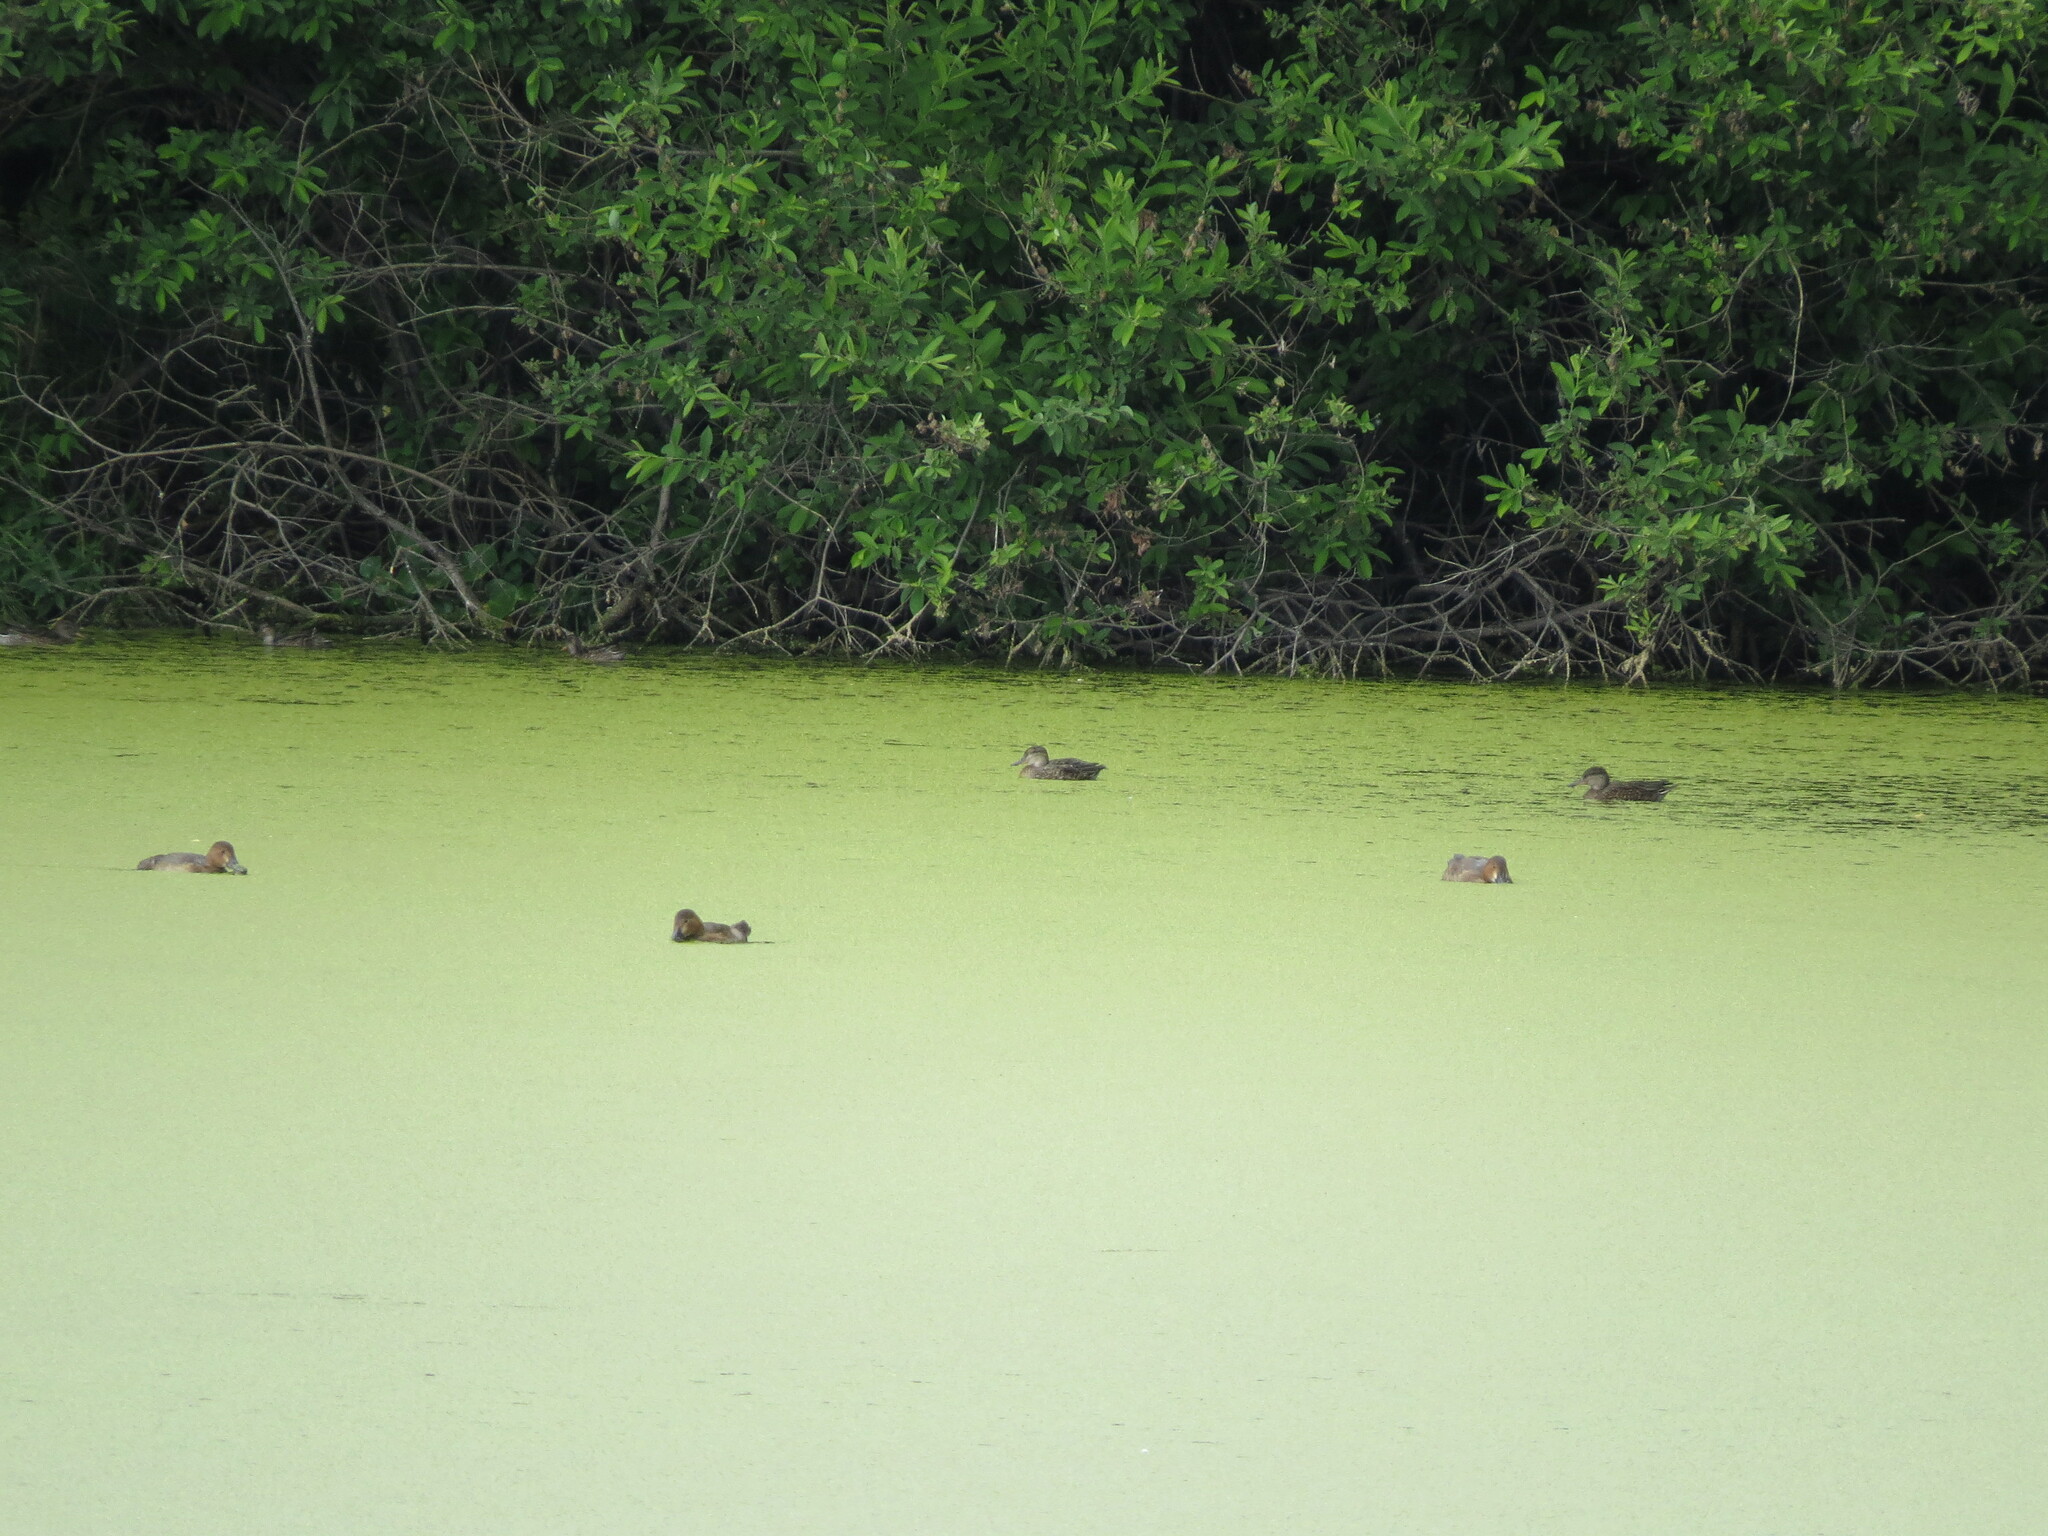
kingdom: Animalia
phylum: Chordata
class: Aves
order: Anseriformes
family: Anatidae
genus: Anas
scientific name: Anas crecca
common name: Eurasian teal
